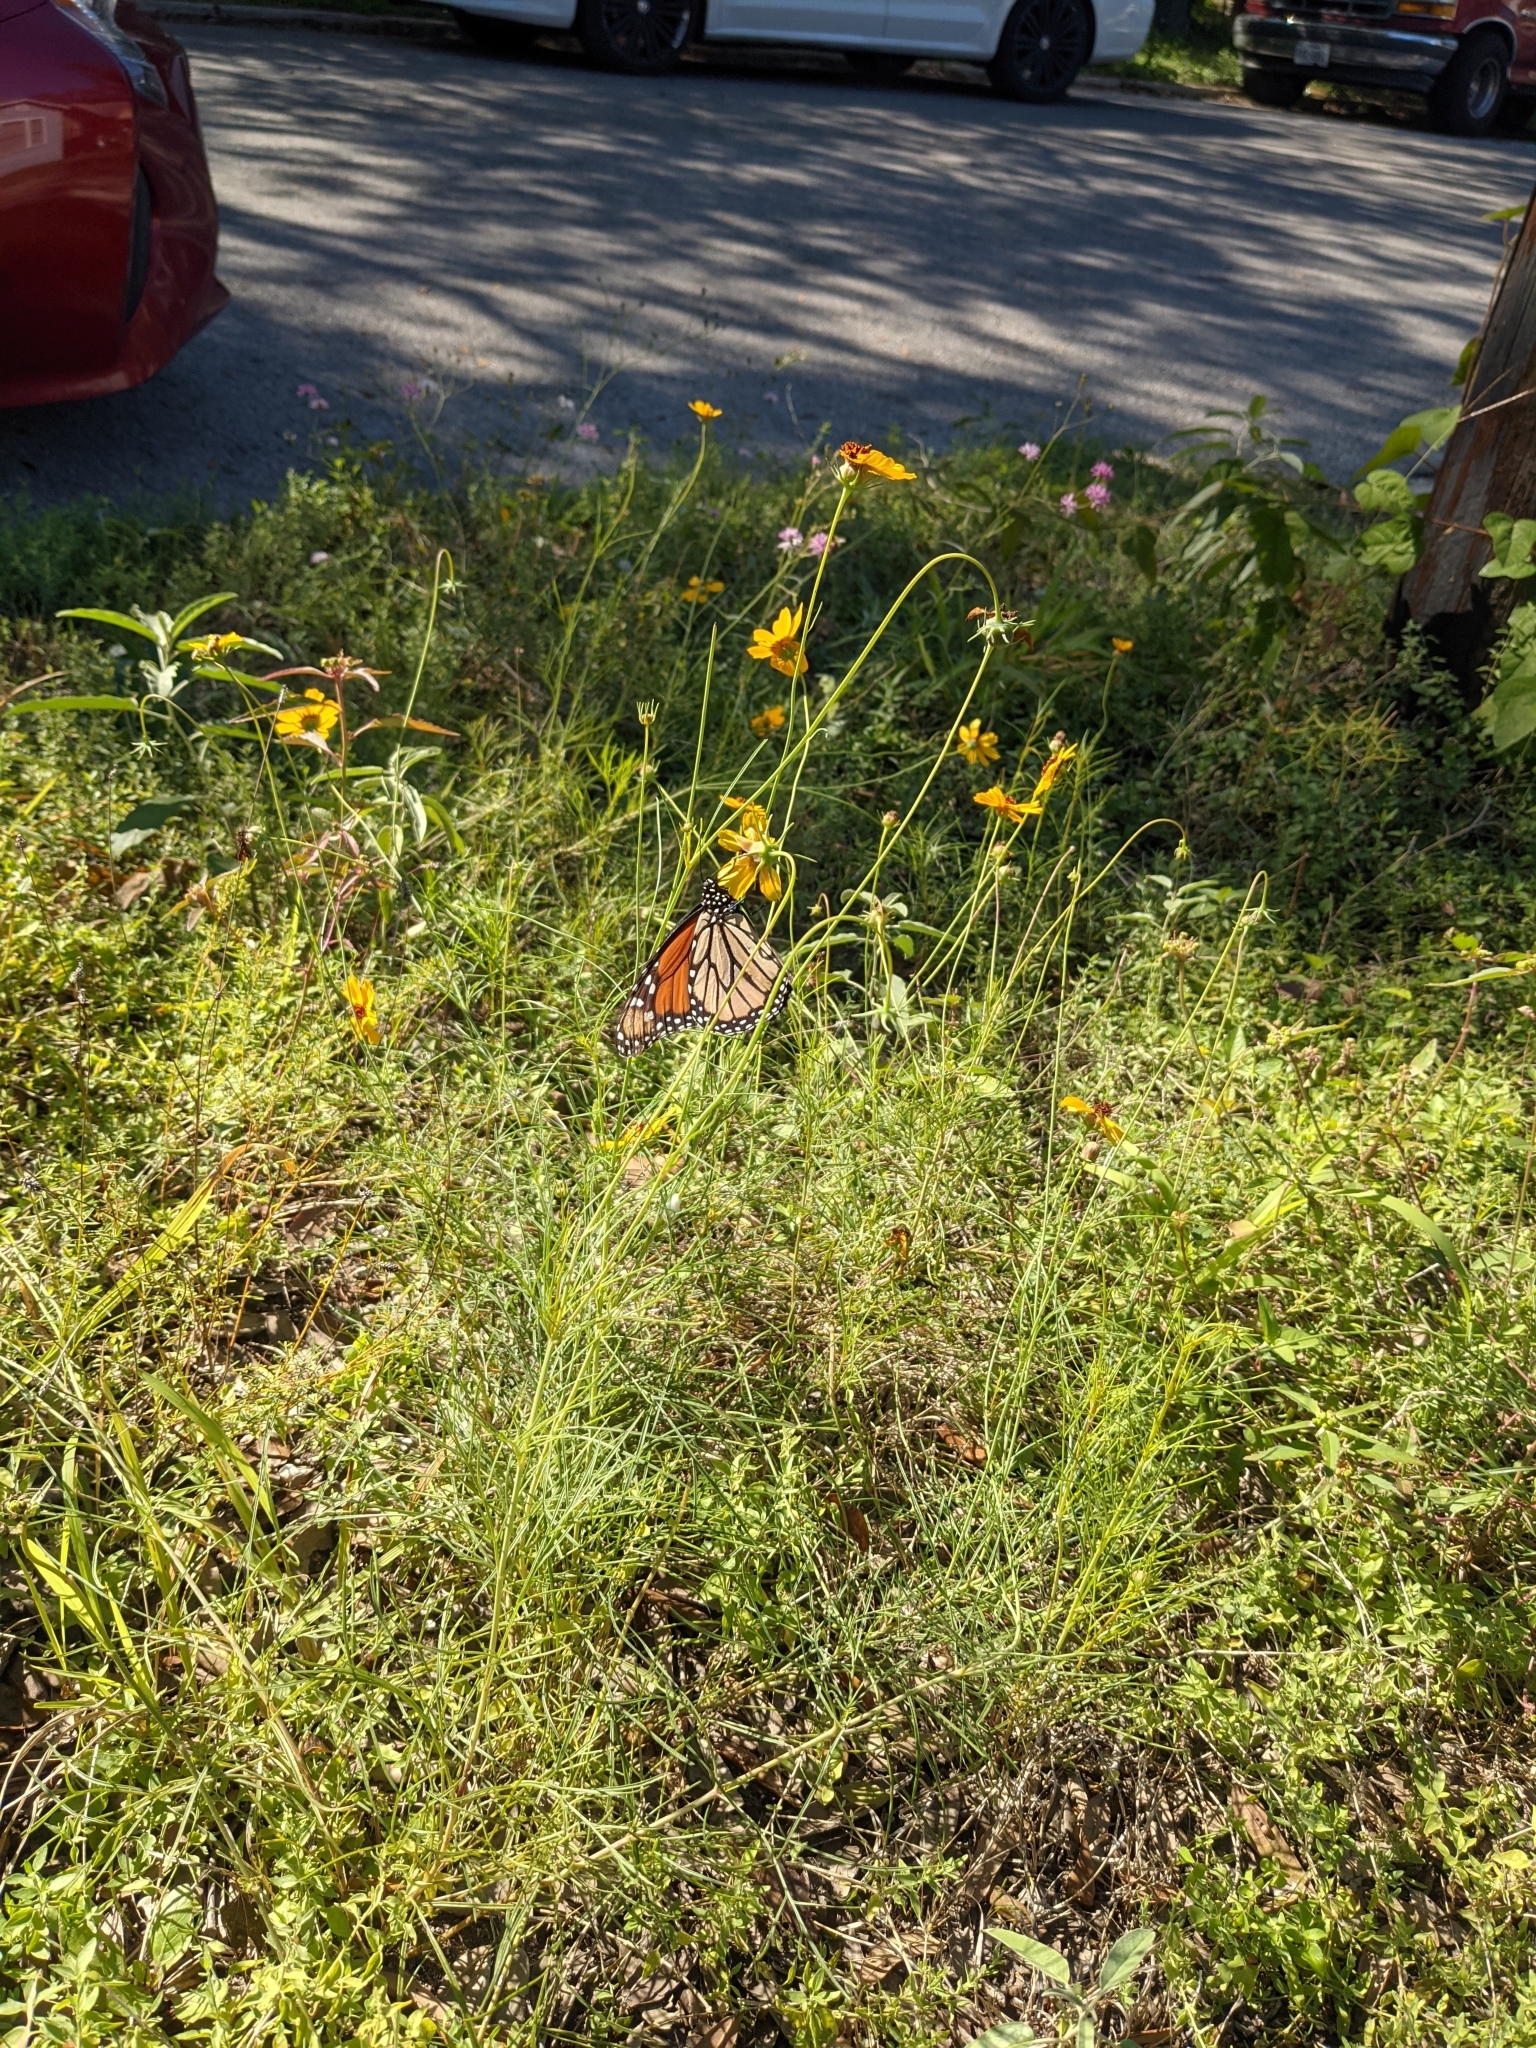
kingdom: Animalia
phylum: Arthropoda
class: Insecta
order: Lepidoptera
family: Nymphalidae
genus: Danaus
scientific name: Danaus plexippus
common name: Monarch
